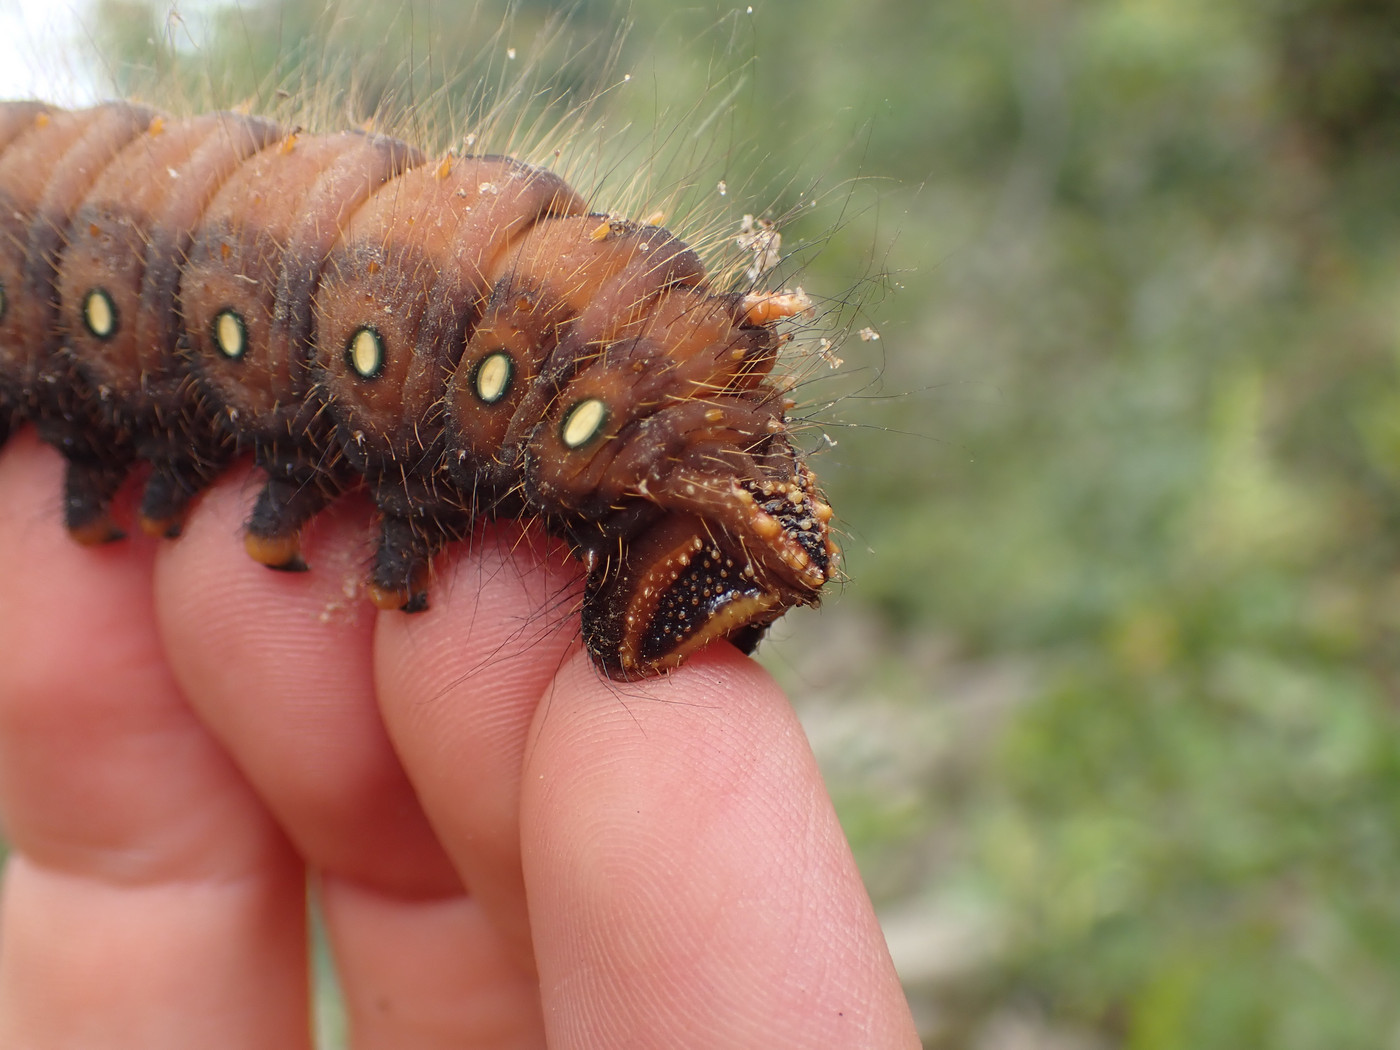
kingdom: Animalia
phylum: Arthropoda
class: Insecta
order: Lepidoptera
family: Saturniidae
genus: Eacles
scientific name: Eacles imperialis
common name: Imperial moth
